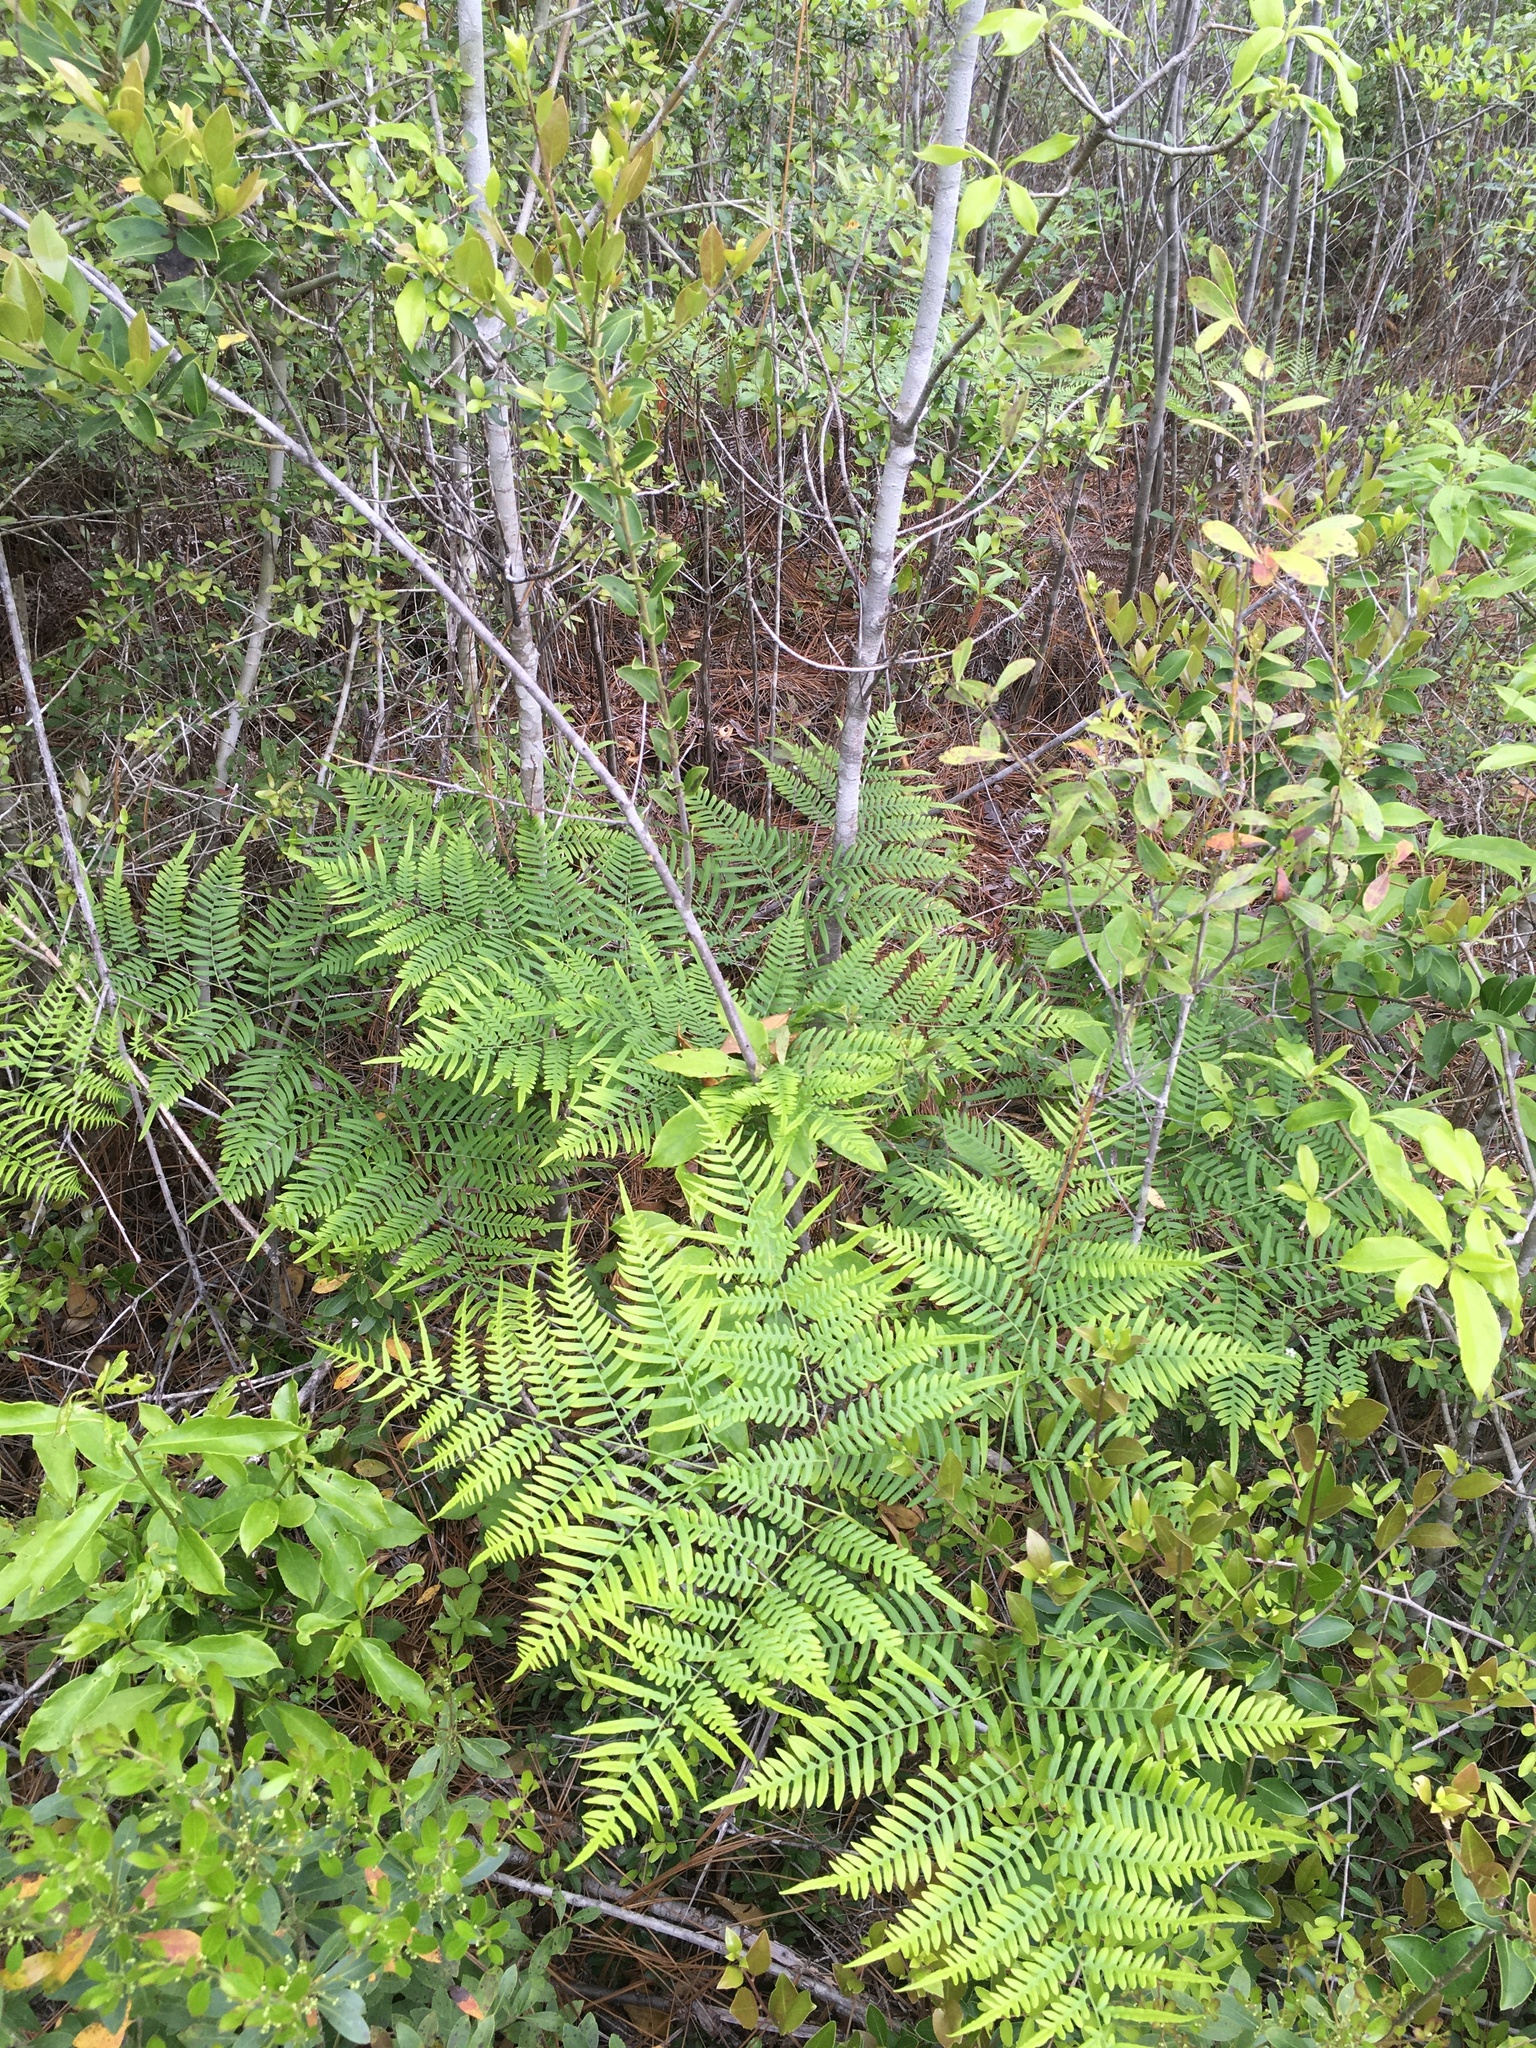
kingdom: Plantae
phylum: Tracheophyta
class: Polypodiopsida
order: Polypodiales
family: Dennstaedtiaceae
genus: Pteridium
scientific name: Pteridium
